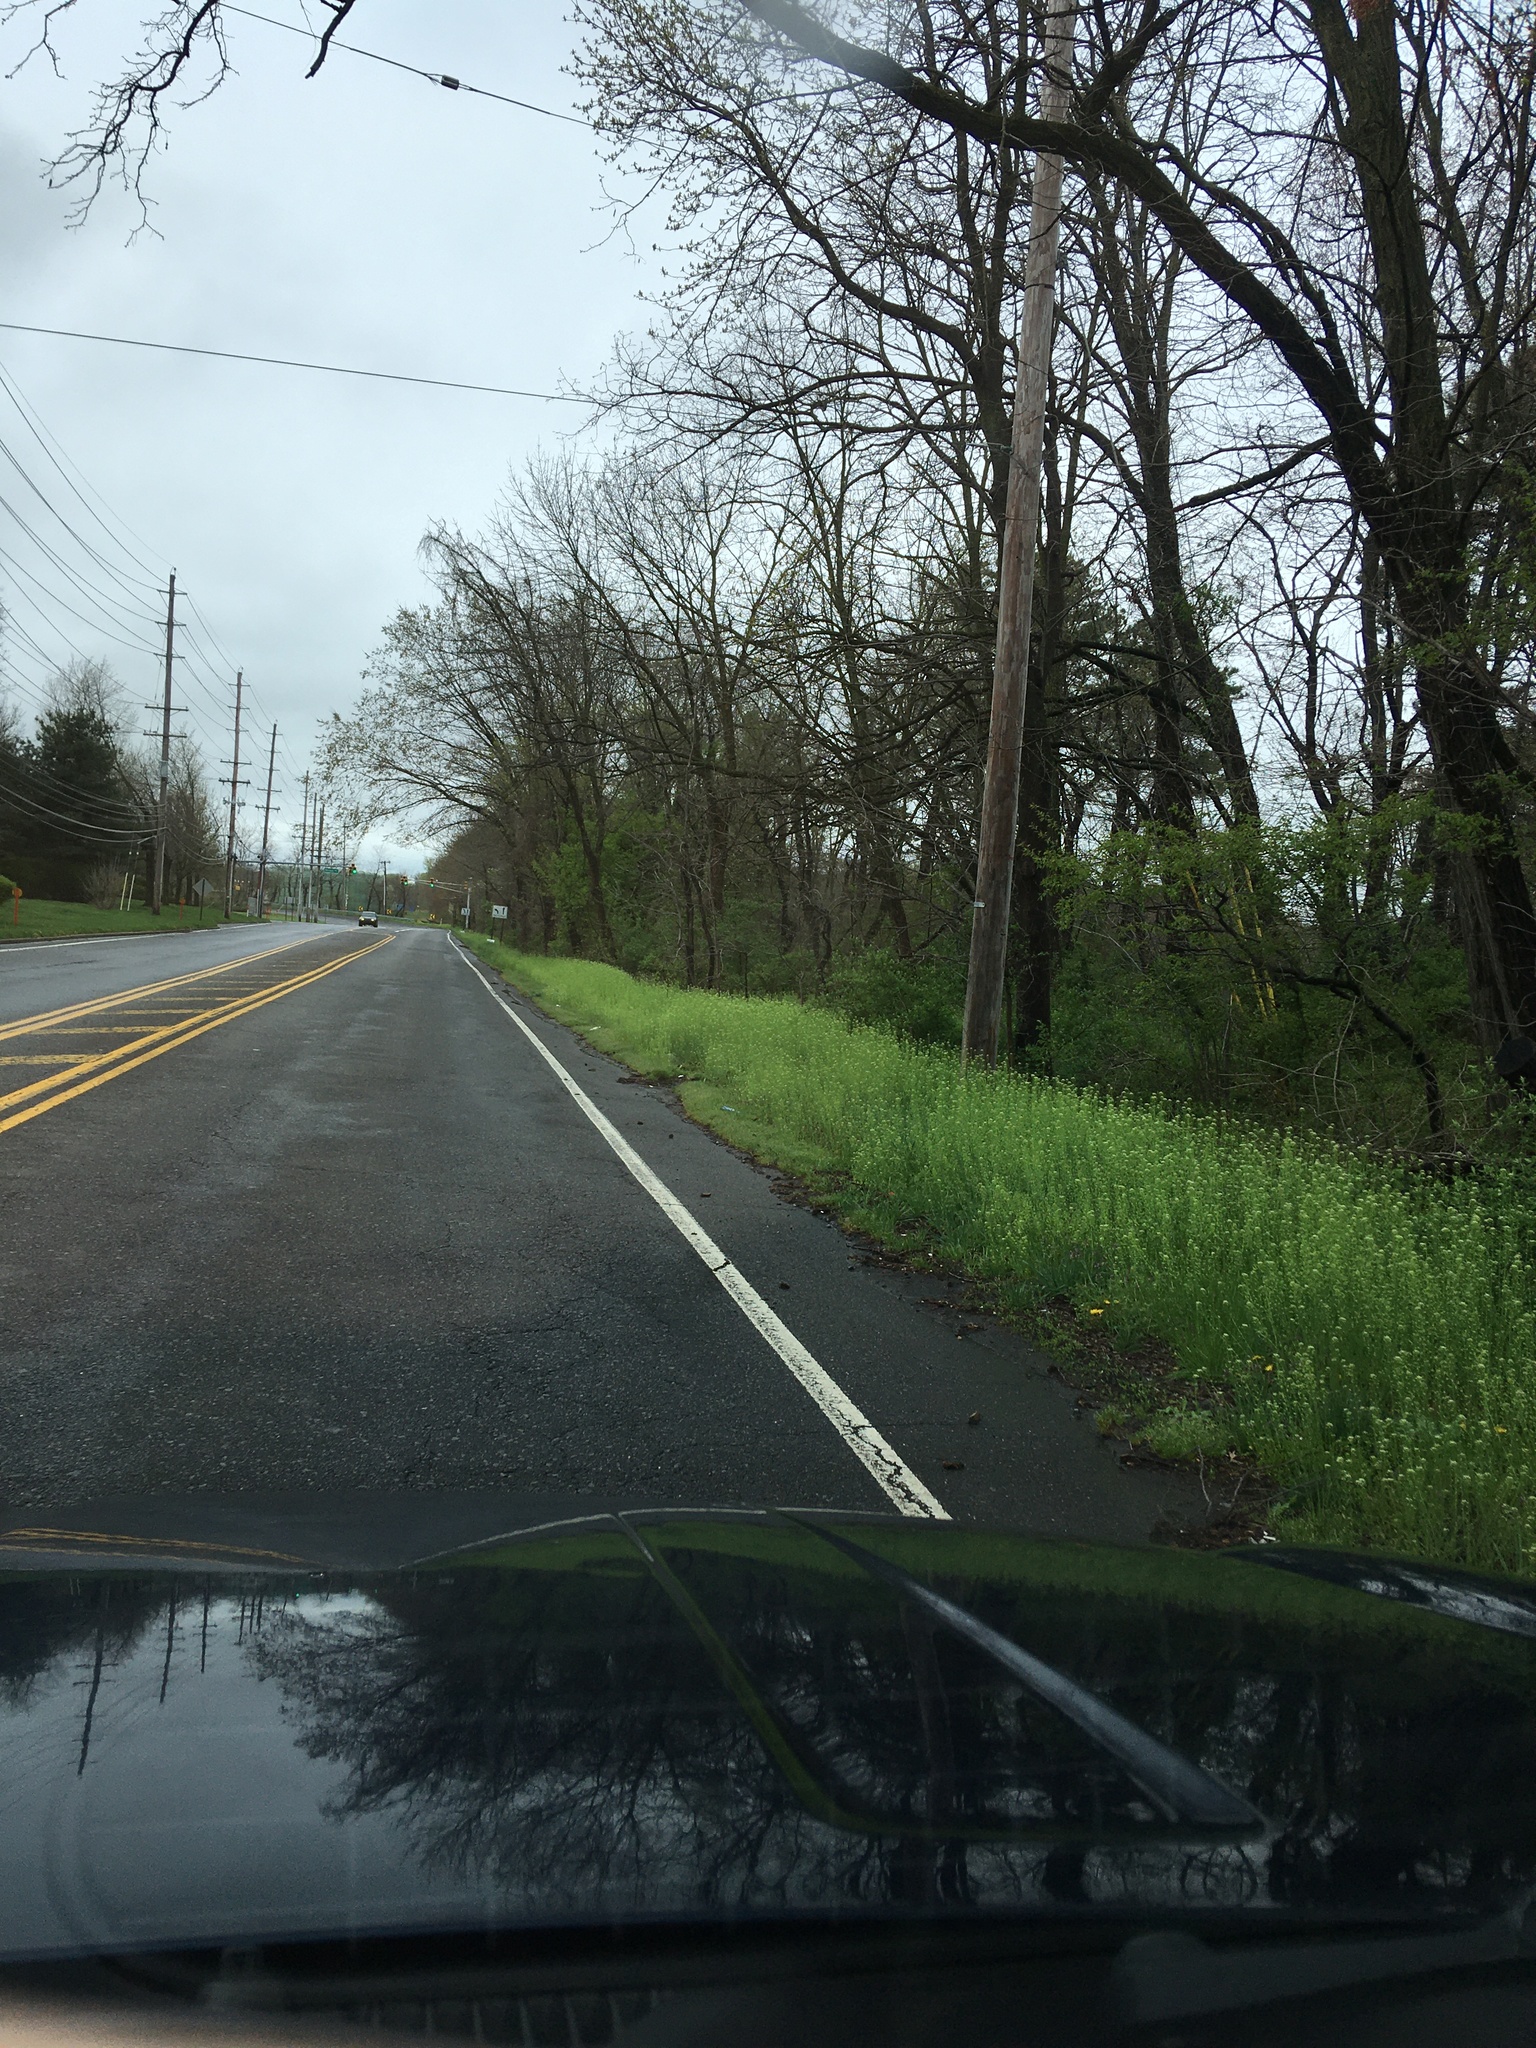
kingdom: Plantae
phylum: Tracheophyta
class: Magnoliopsida
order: Brassicales
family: Brassicaceae
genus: Mummenhoffia
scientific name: Mummenhoffia alliacea
